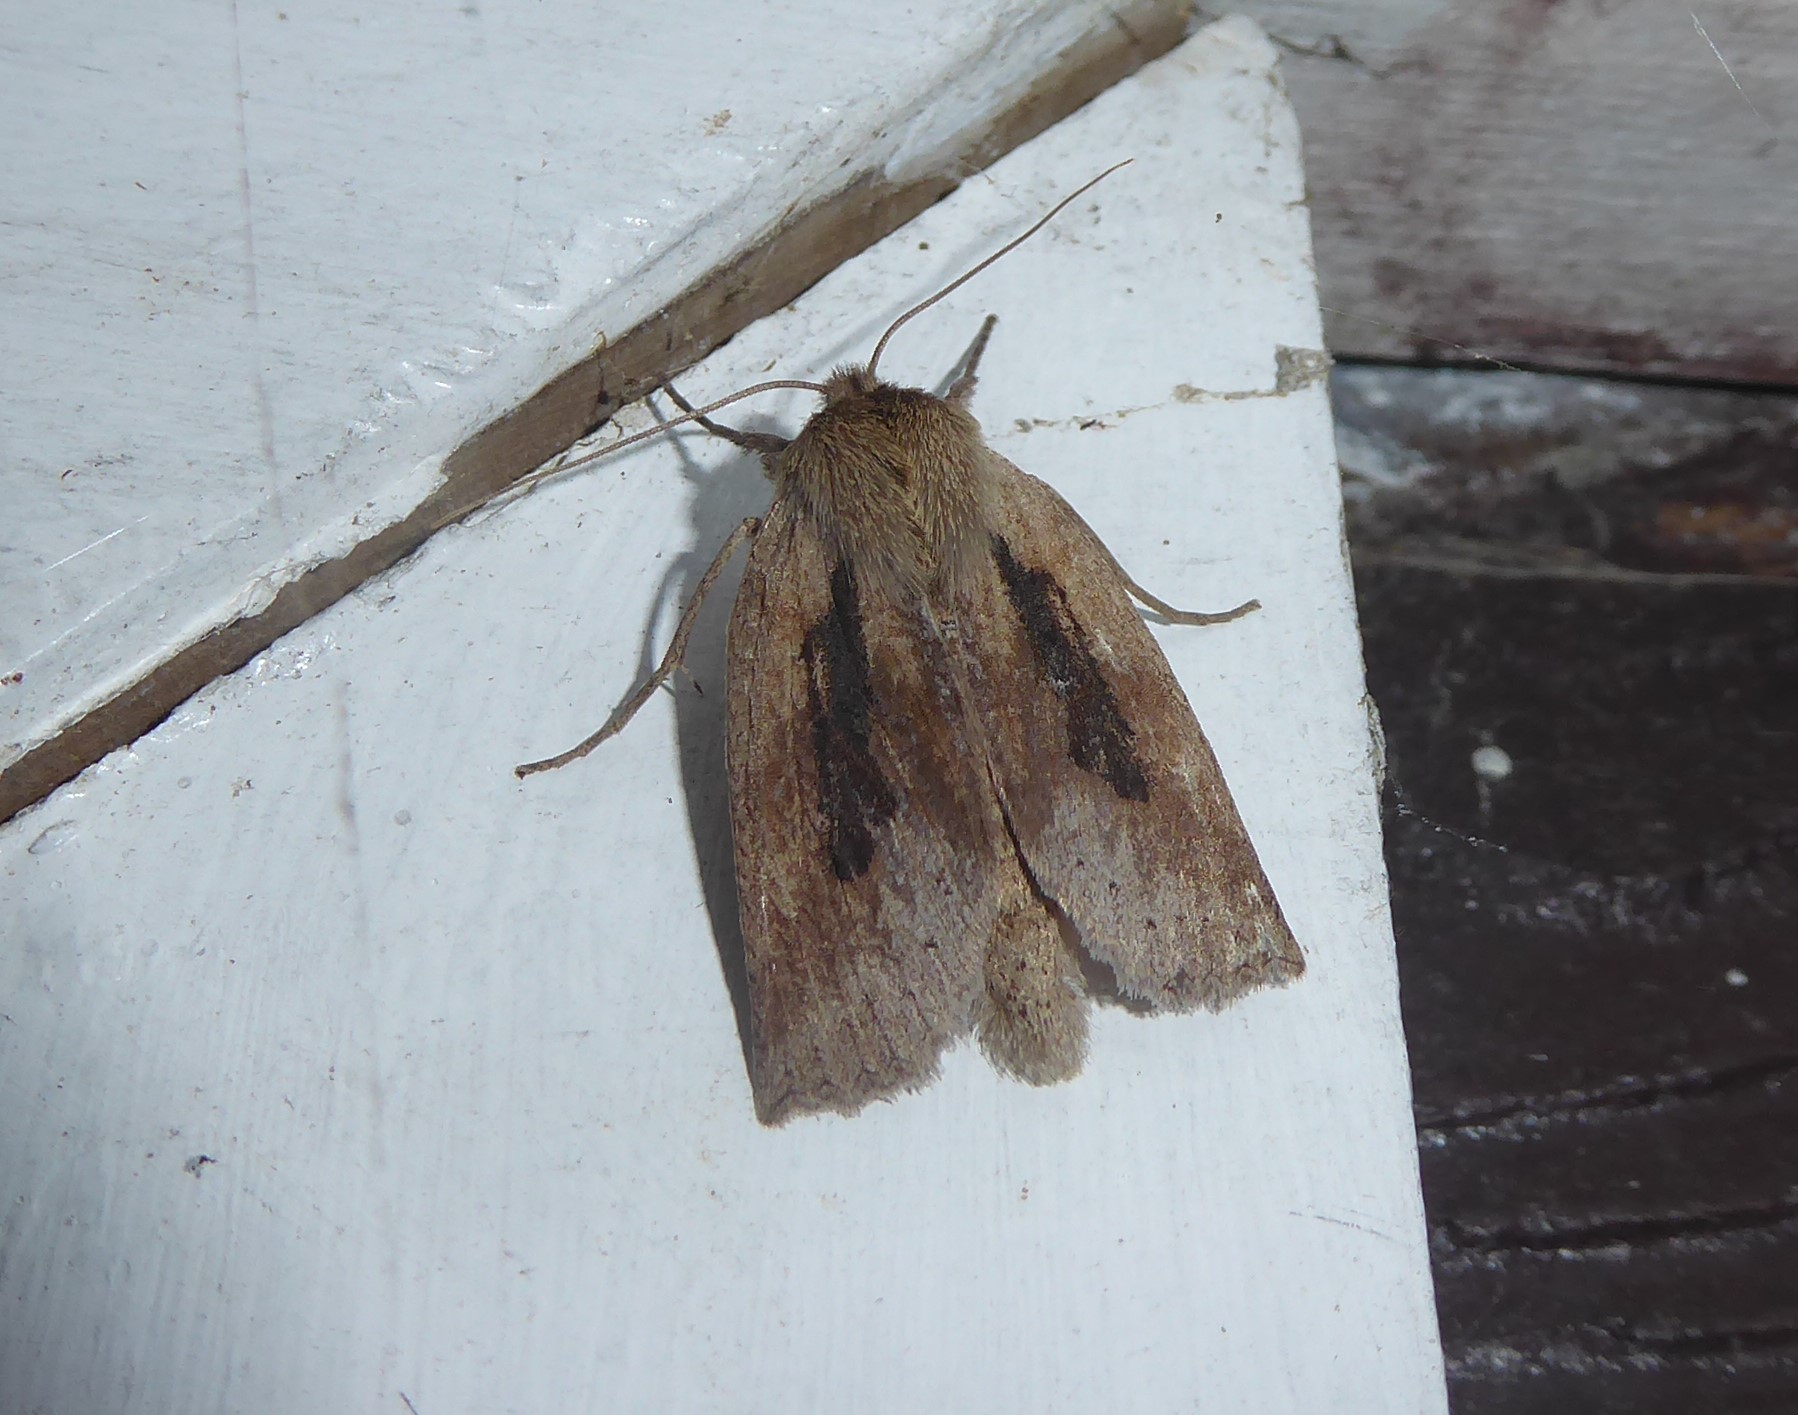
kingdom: Animalia
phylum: Arthropoda
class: Insecta
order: Lepidoptera
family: Geometridae
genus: Declana
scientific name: Declana leptomera
